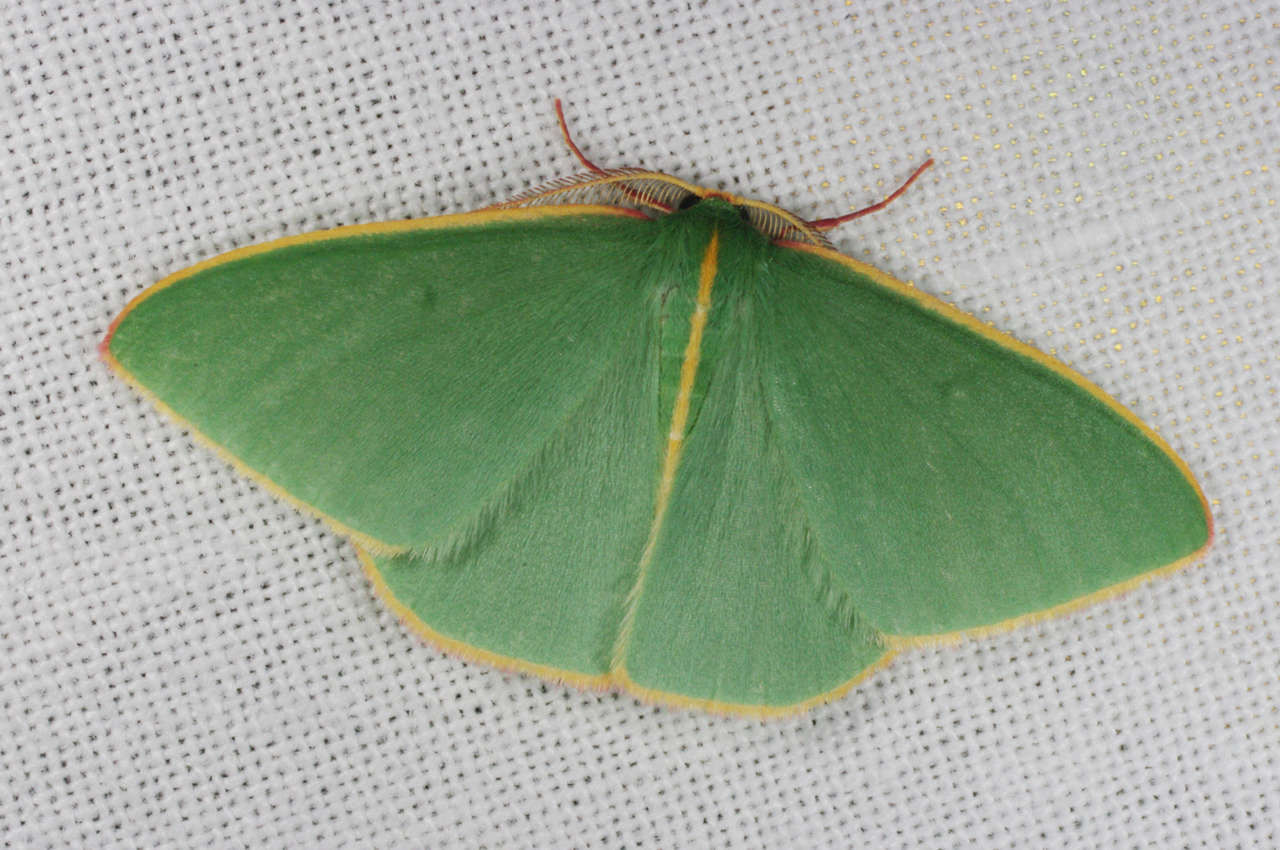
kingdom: Animalia
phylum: Arthropoda
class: Insecta
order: Lepidoptera
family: Geometridae
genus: Chlorocoma
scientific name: Chlorocoma
